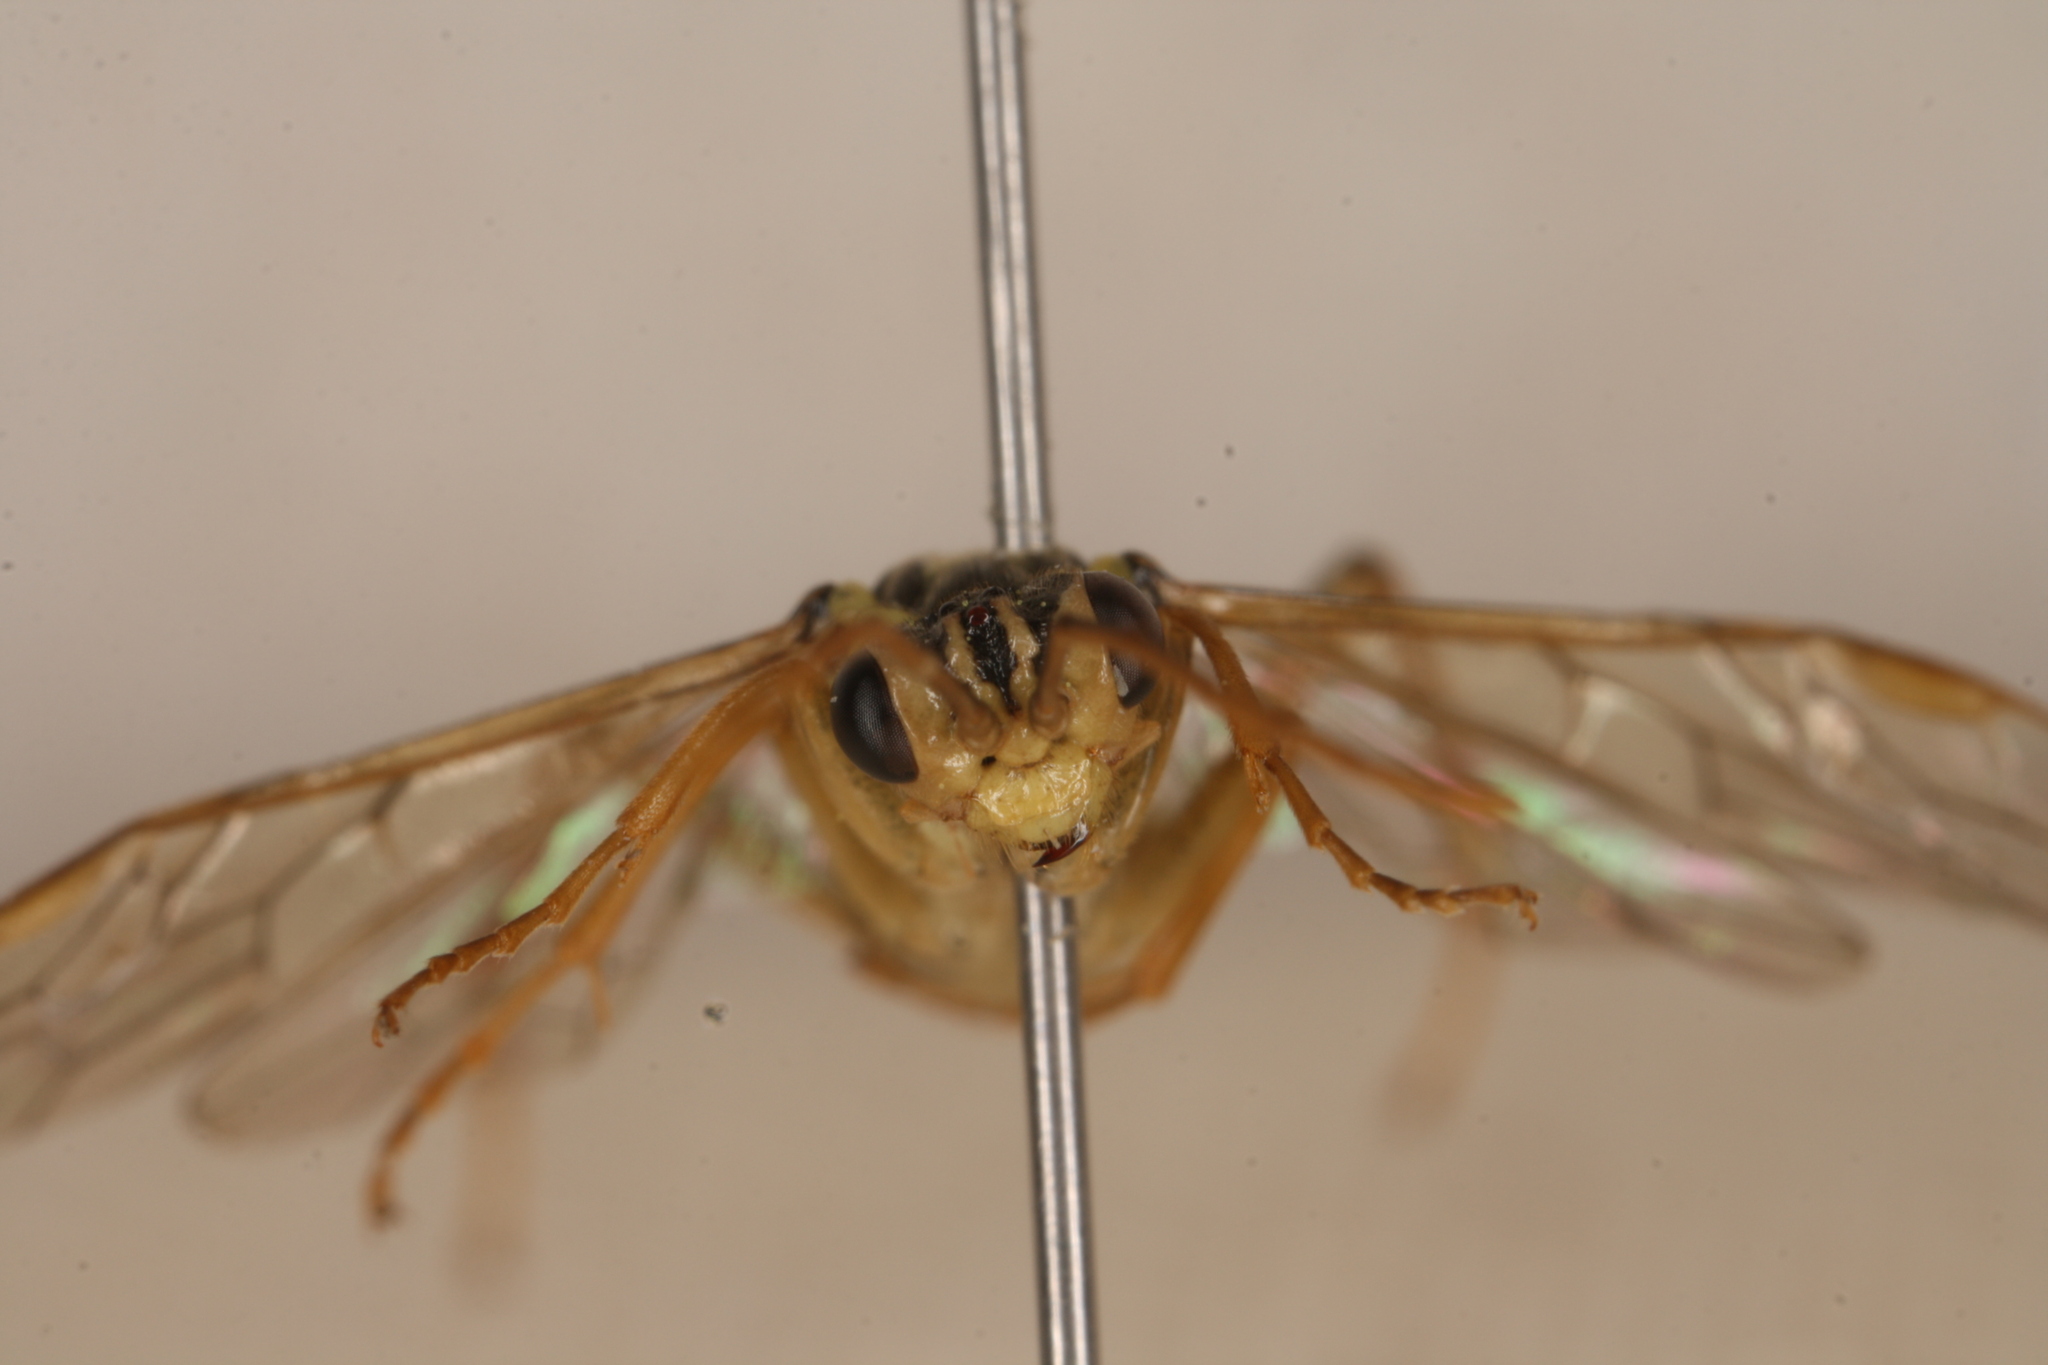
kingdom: Animalia
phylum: Arthropoda
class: Insecta
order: Hymenoptera
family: Tenthredinidae
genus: Aglaostigma
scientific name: Aglaostigma discolor
